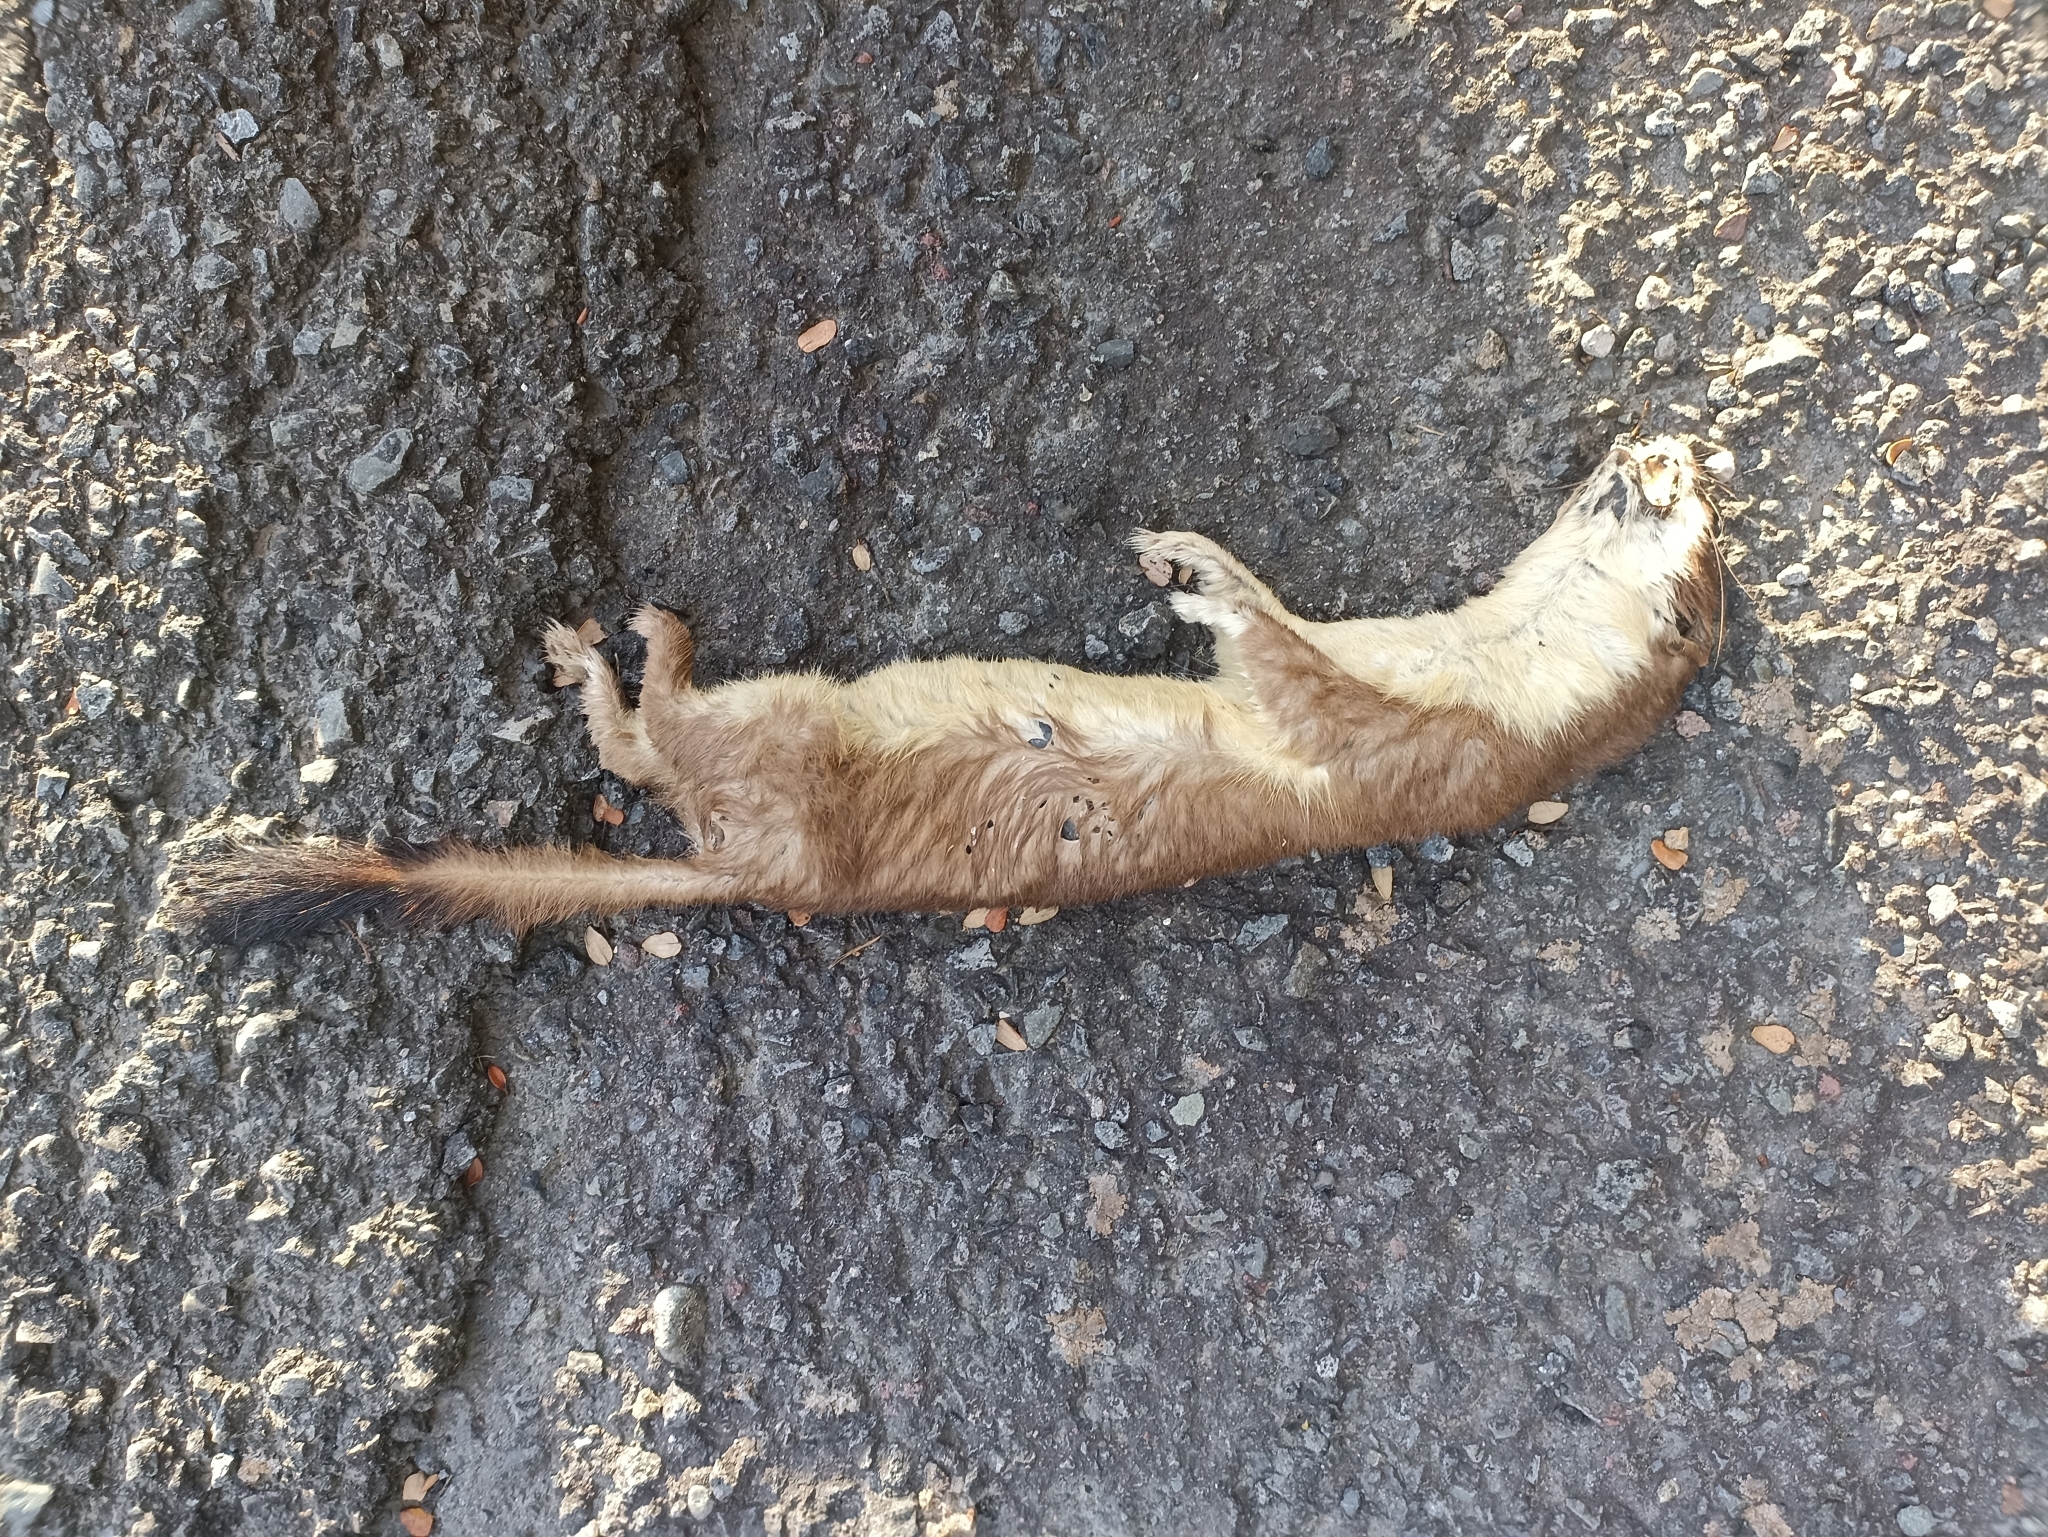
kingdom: Animalia
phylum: Chordata
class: Mammalia
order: Carnivora
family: Mustelidae
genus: Mustela
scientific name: Mustela erminea
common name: Stoat
